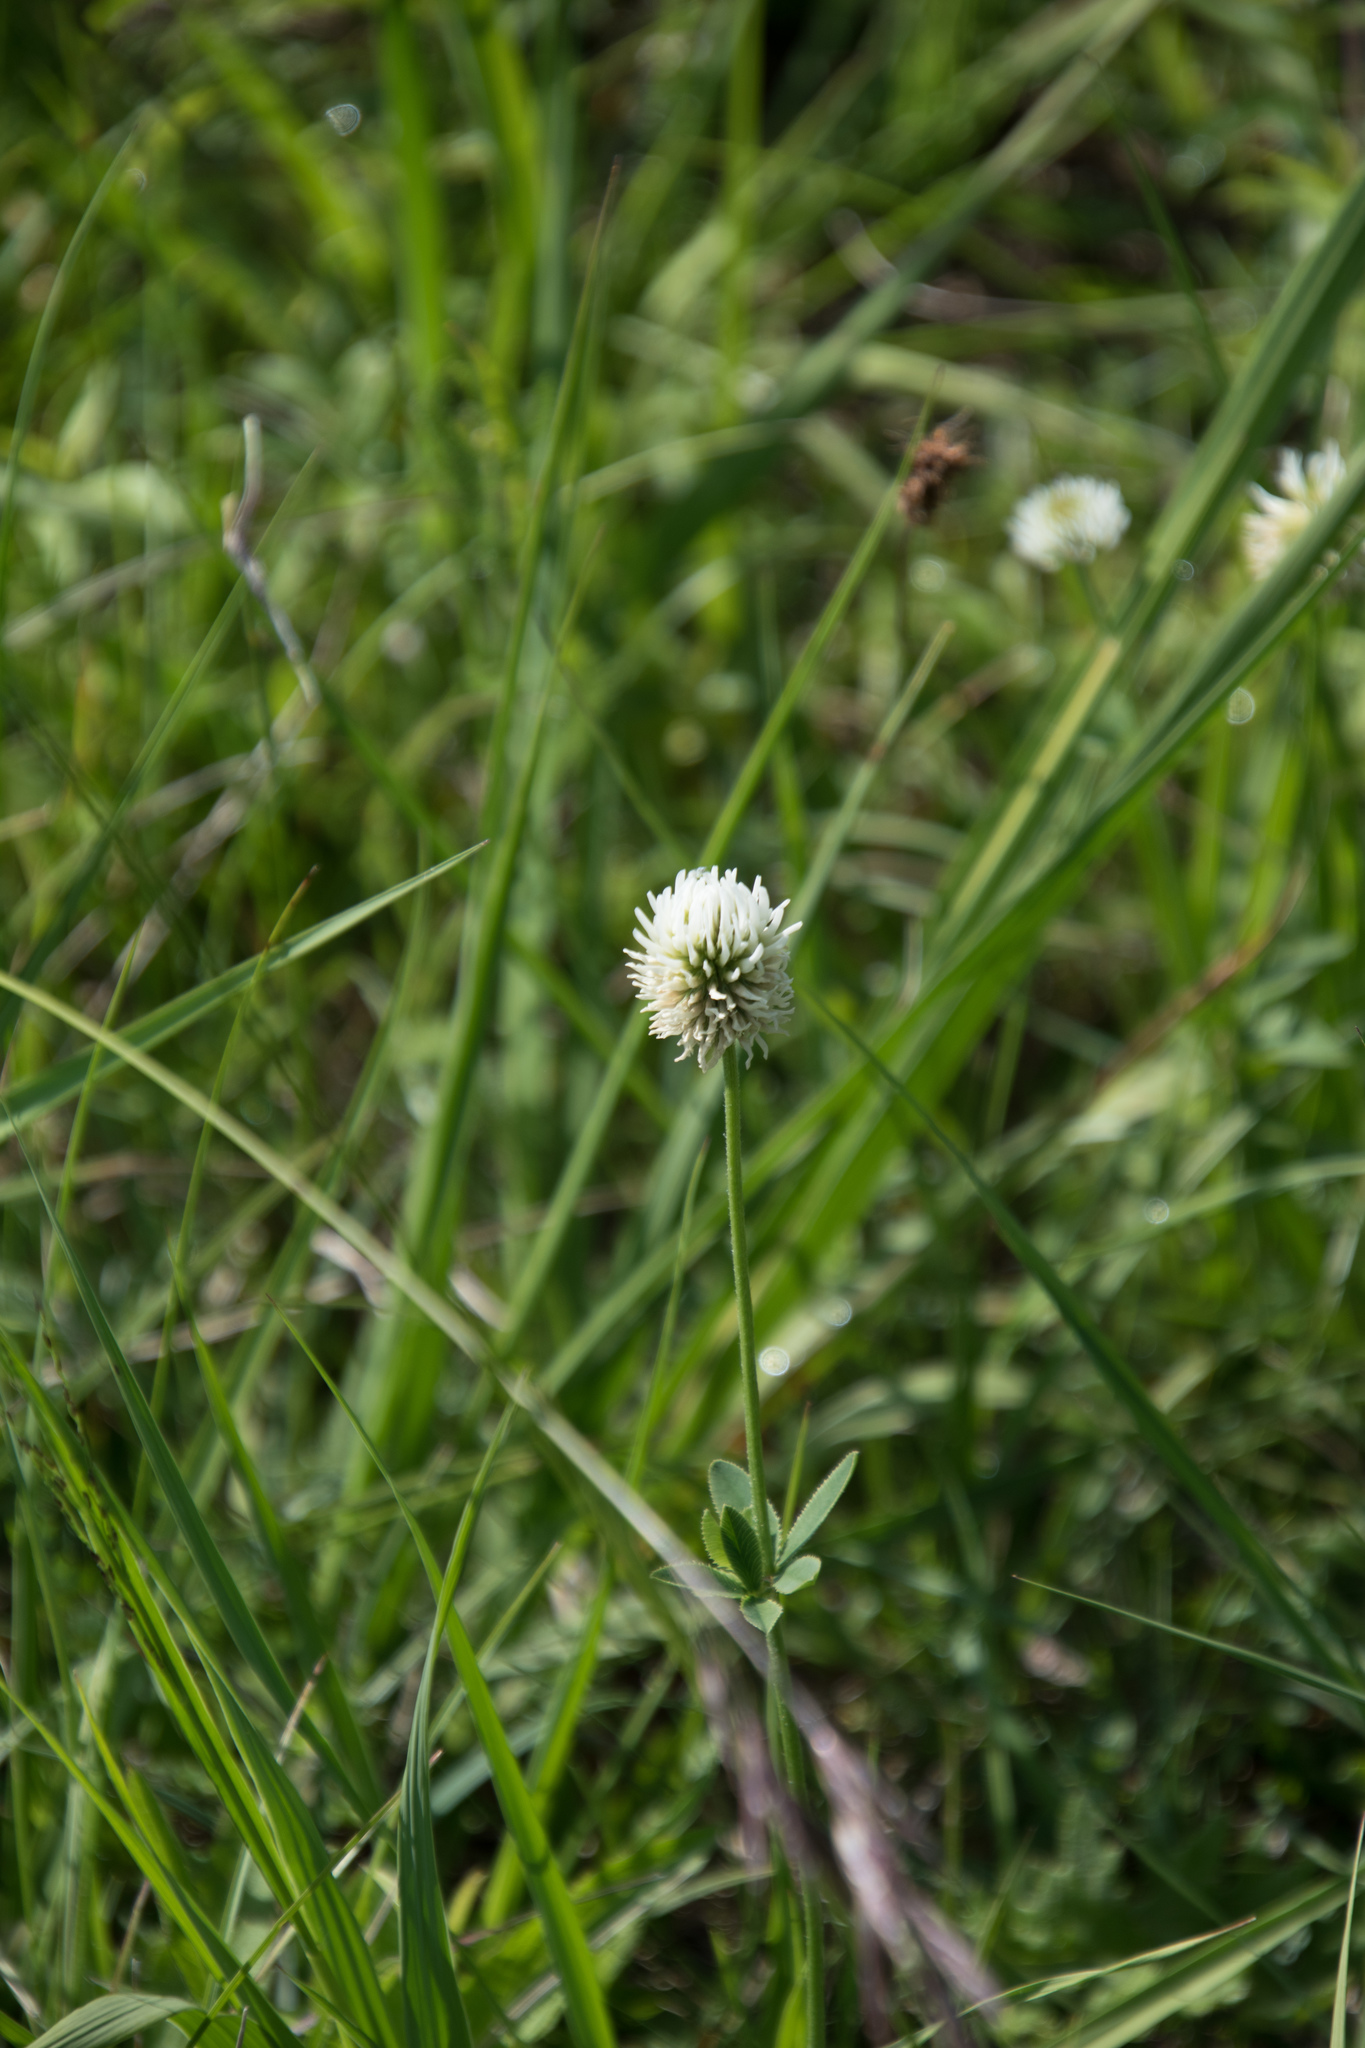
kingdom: Plantae
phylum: Tracheophyta
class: Magnoliopsida
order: Fabales
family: Fabaceae
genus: Trifolium
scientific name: Trifolium montanum
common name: Mountain clover
